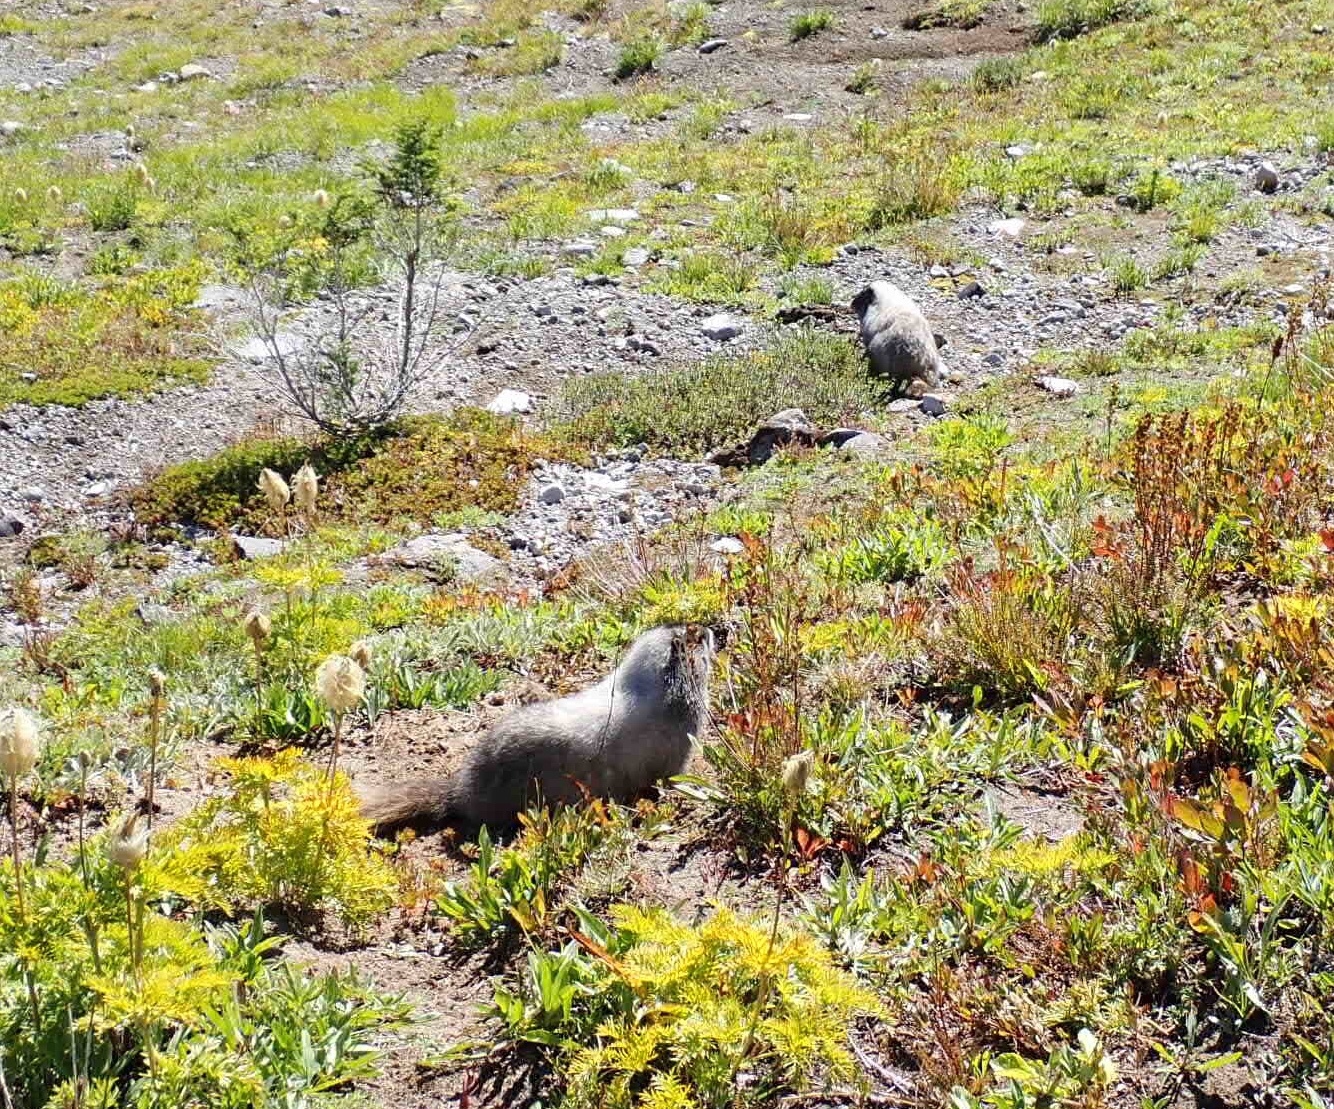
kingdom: Animalia
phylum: Chordata
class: Mammalia
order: Rodentia
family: Sciuridae
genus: Marmota
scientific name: Marmota caligata
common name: Hoary marmot
